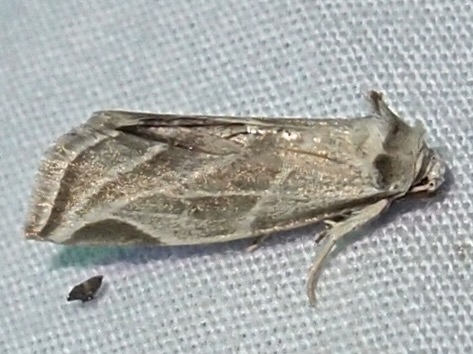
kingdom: Animalia
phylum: Arthropoda
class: Insecta
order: Lepidoptera
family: Noctuidae
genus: Plagiomimicus
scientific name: Plagiomimicus tepperi
